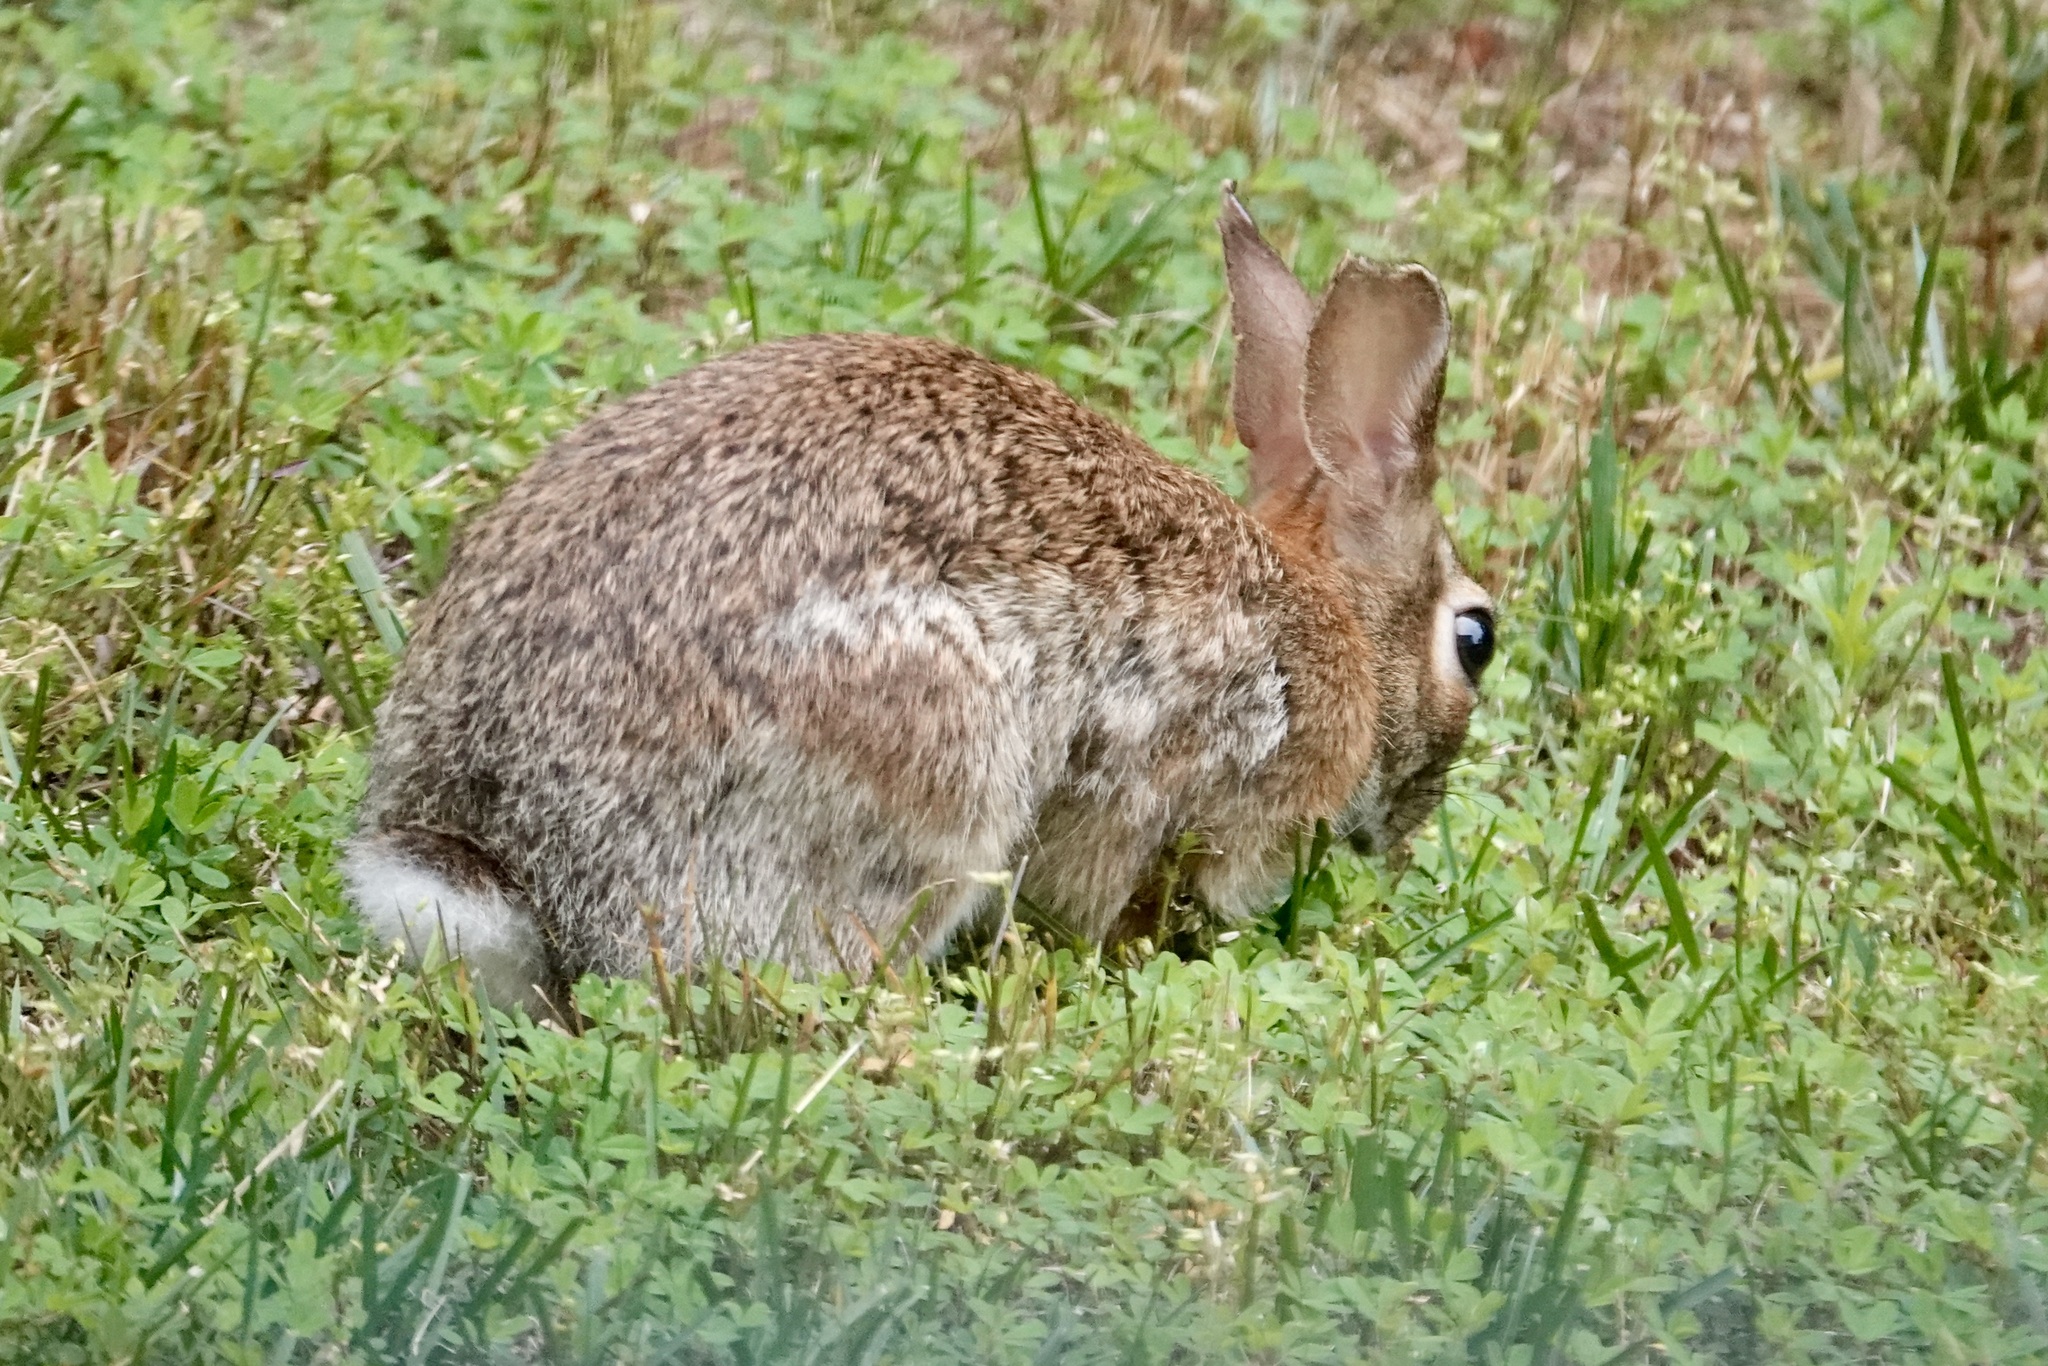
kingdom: Animalia
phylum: Chordata
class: Mammalia
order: Lagomorpha
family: Leporidae
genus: Sylvilagus
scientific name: Sylvilagus floridanus
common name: Eastern cottontail
